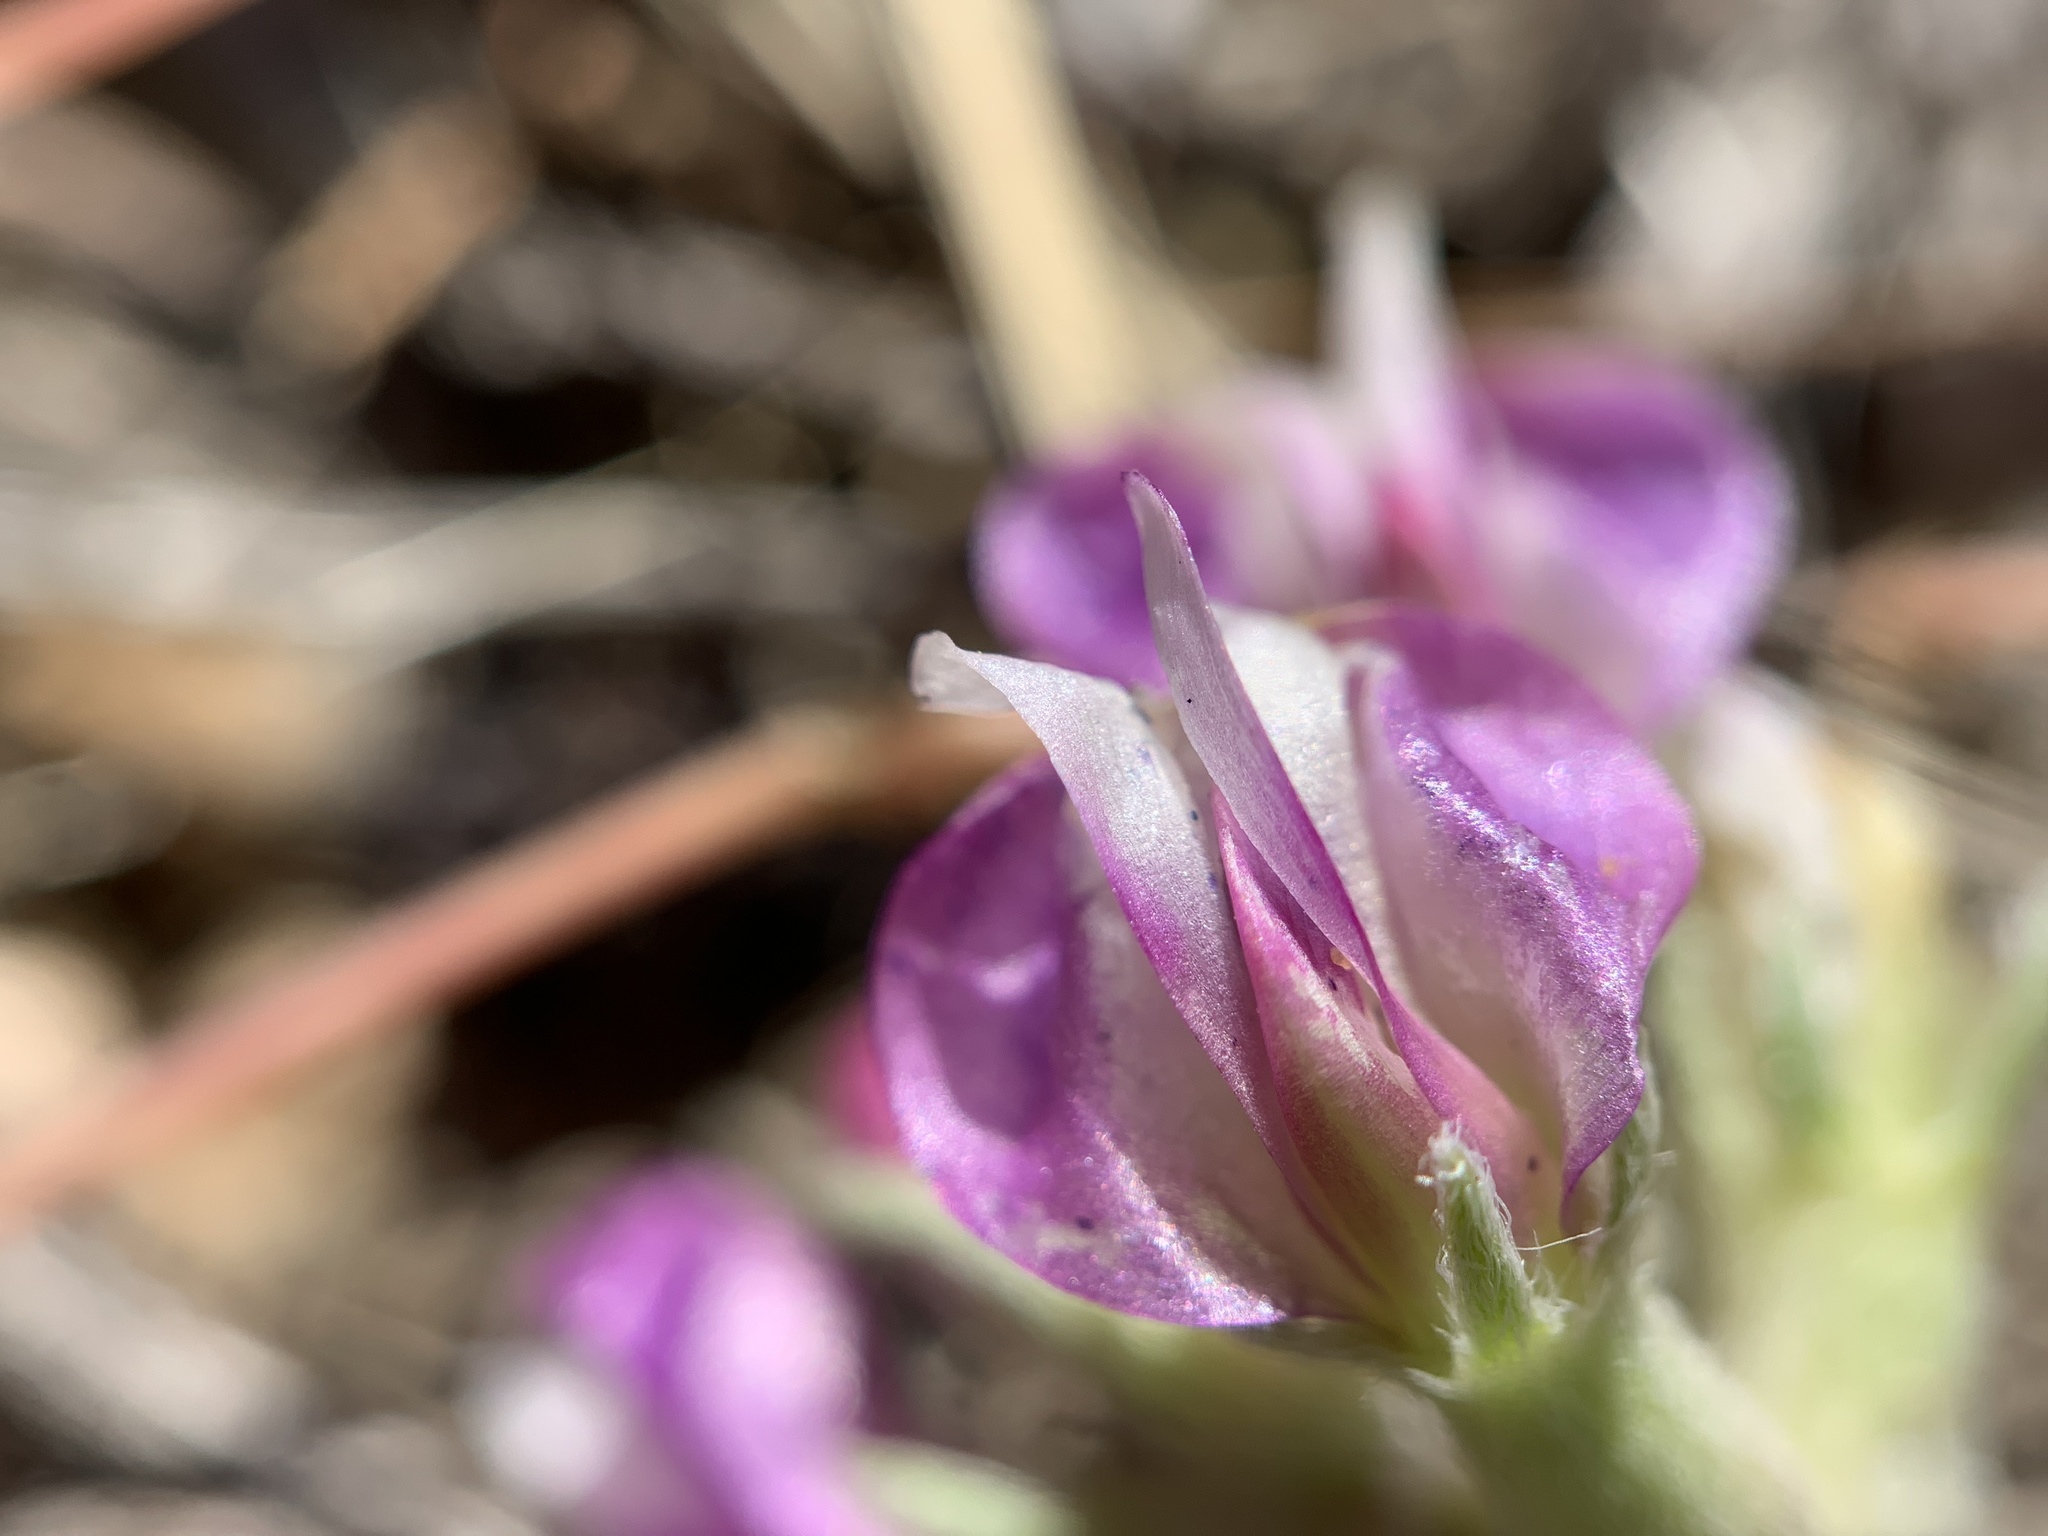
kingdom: Plantae
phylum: Tracheophyta
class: Magnoliopsida
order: Fabales
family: Fabaceae
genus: Astragalus
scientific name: Astragalus calycosus
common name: King's milkvetch
